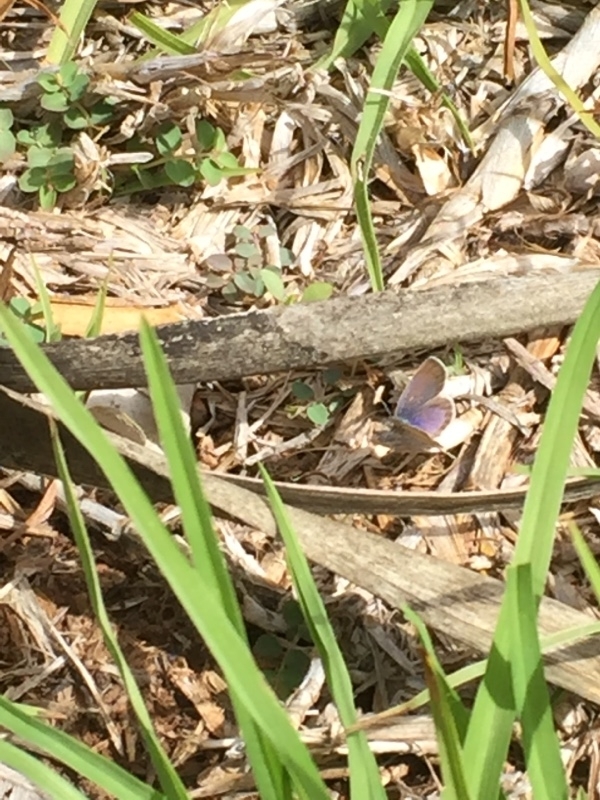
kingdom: Animalia
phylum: Arthropoda
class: Insecta
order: Lepidoptera
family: Lycaenidae
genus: Zizeeria
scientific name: Zizeeria knysna
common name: African grass blue
